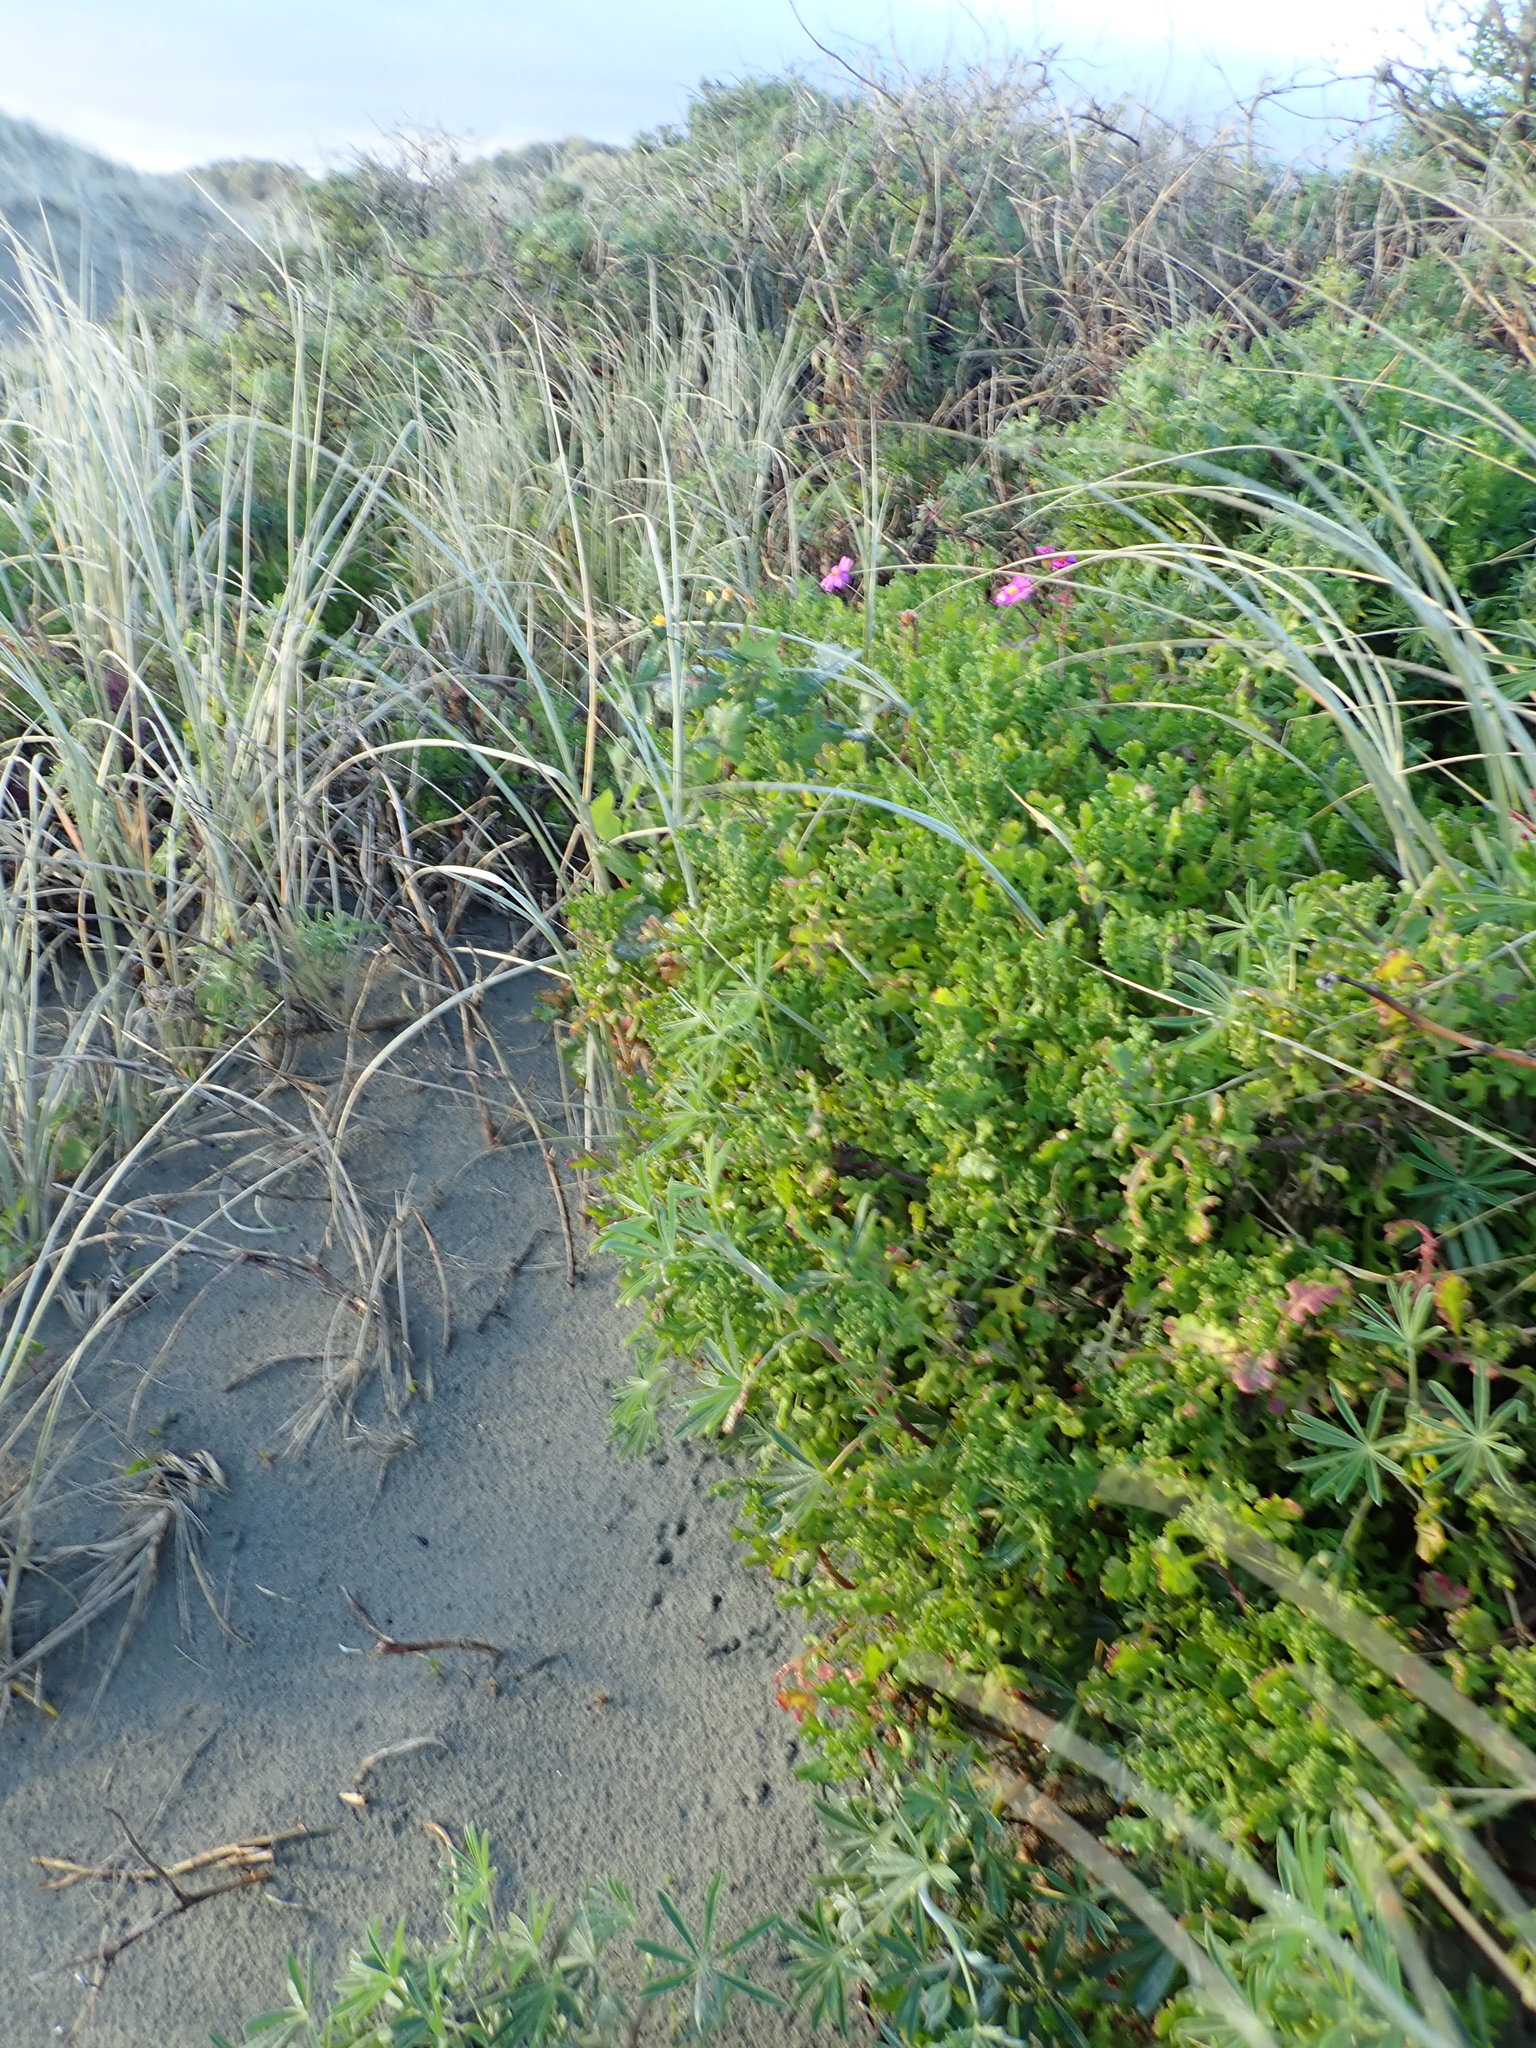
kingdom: Plantae
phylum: Tracheophyta
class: Magnoliopsida
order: Asterales
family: Asteraceae
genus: Senecio
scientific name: Senecio elegans
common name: Purple groundsel
